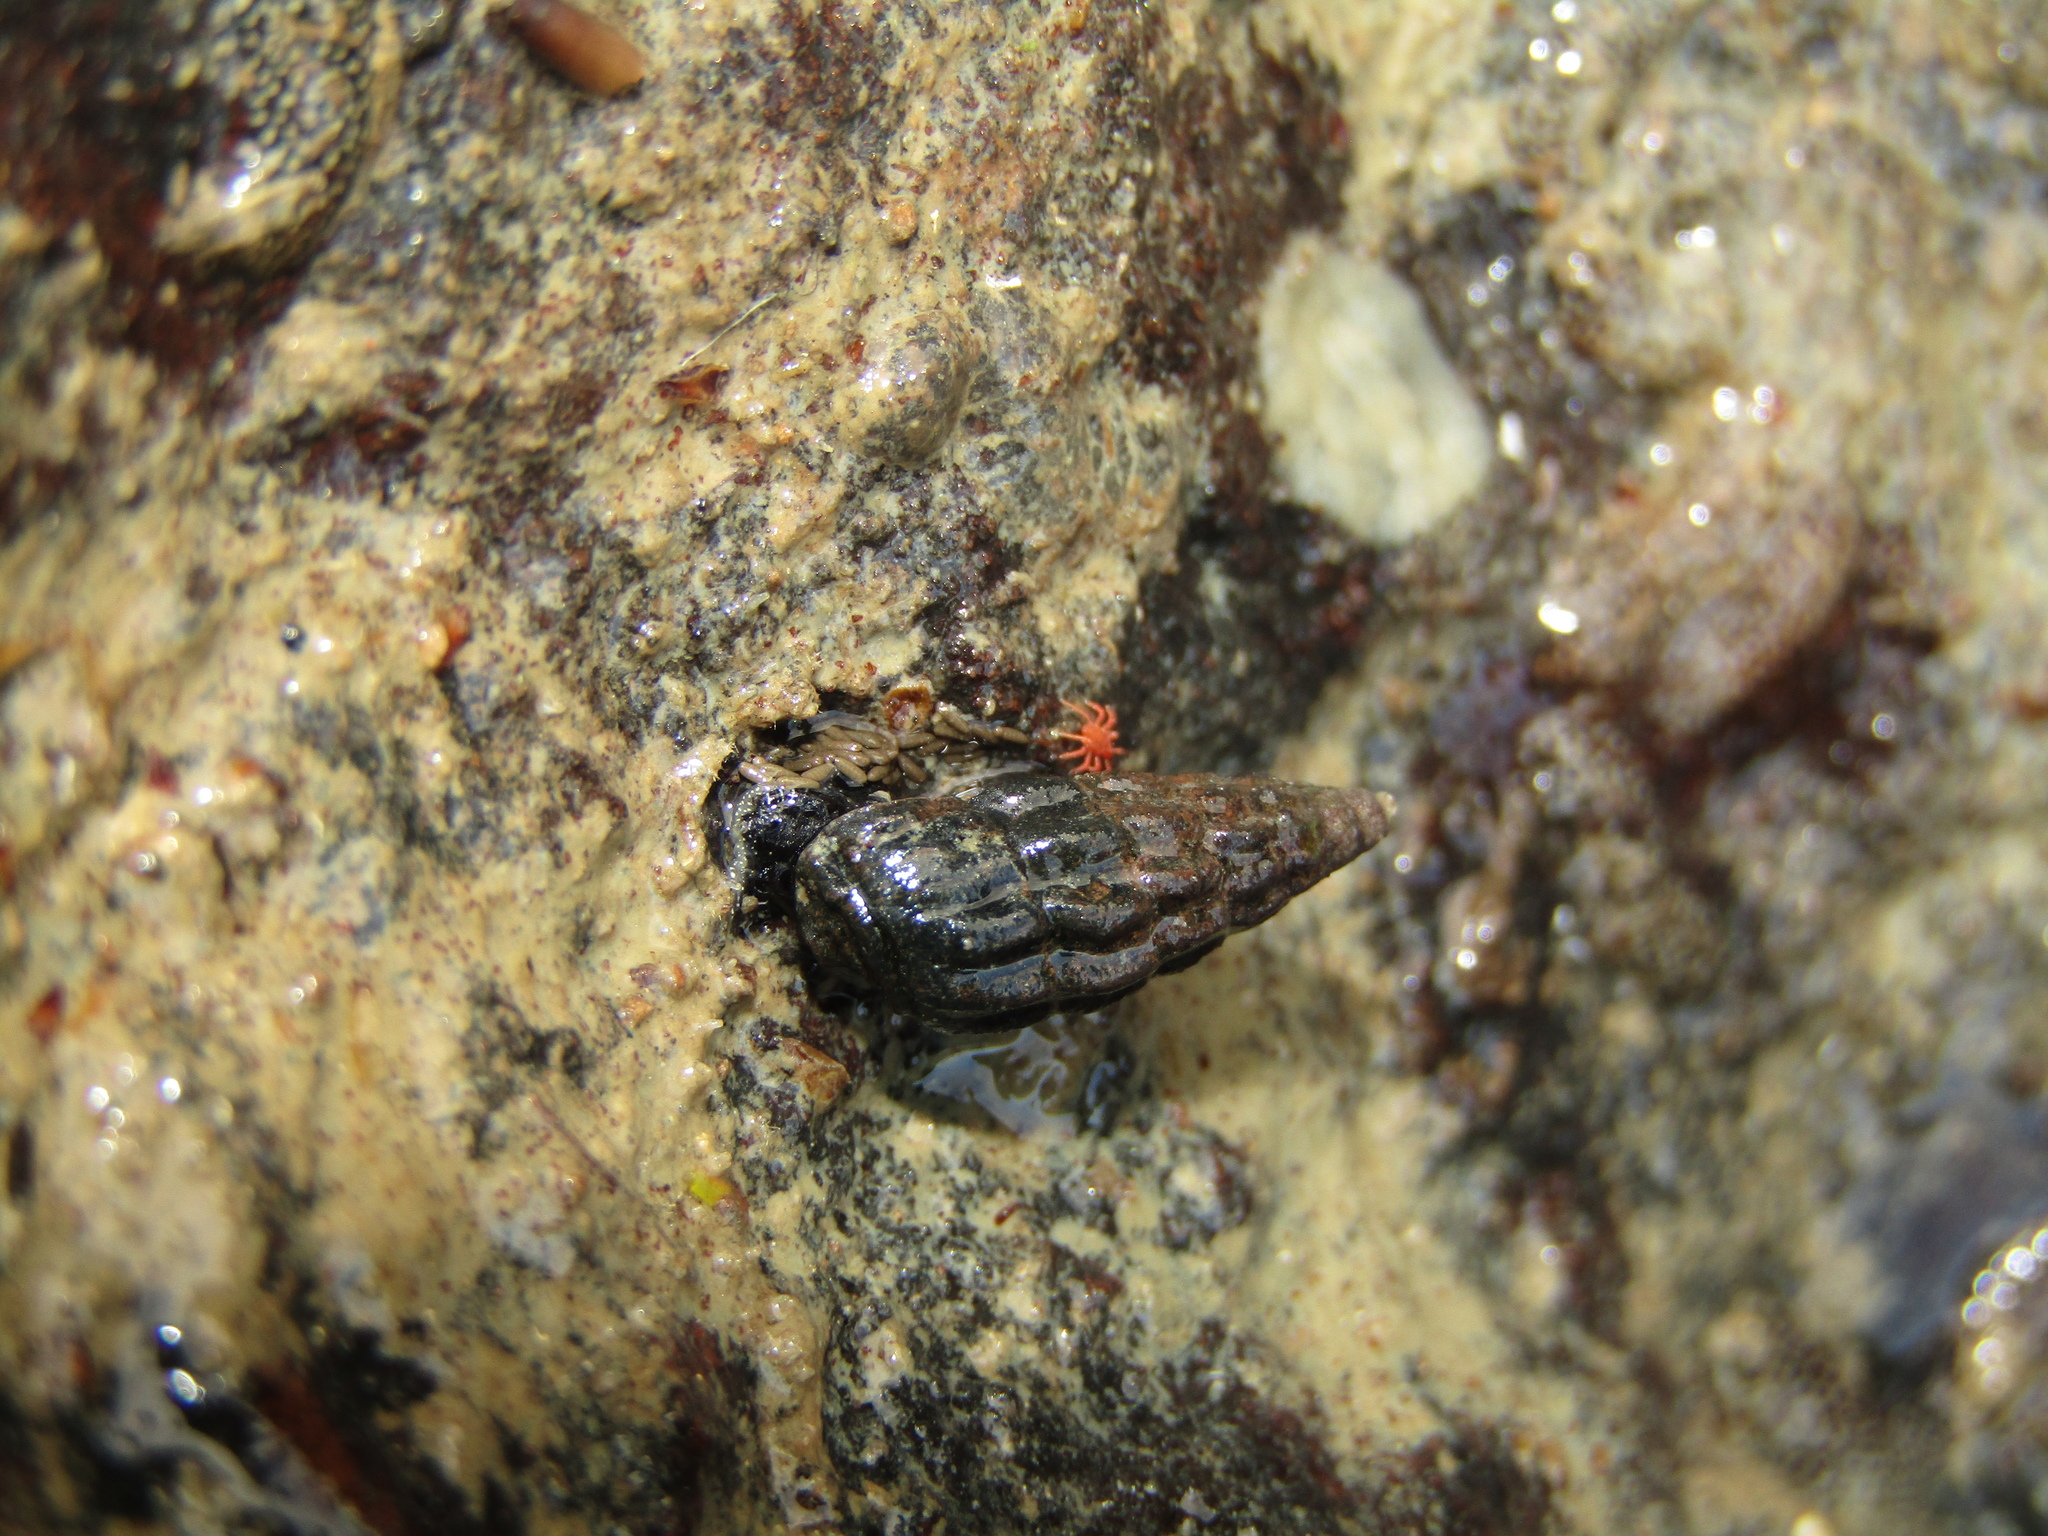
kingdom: Animalia
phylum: Mollusca
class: Gastropoda
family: Batillariidae
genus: Zeacumantus
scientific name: Zeacumantus subcarinatus
